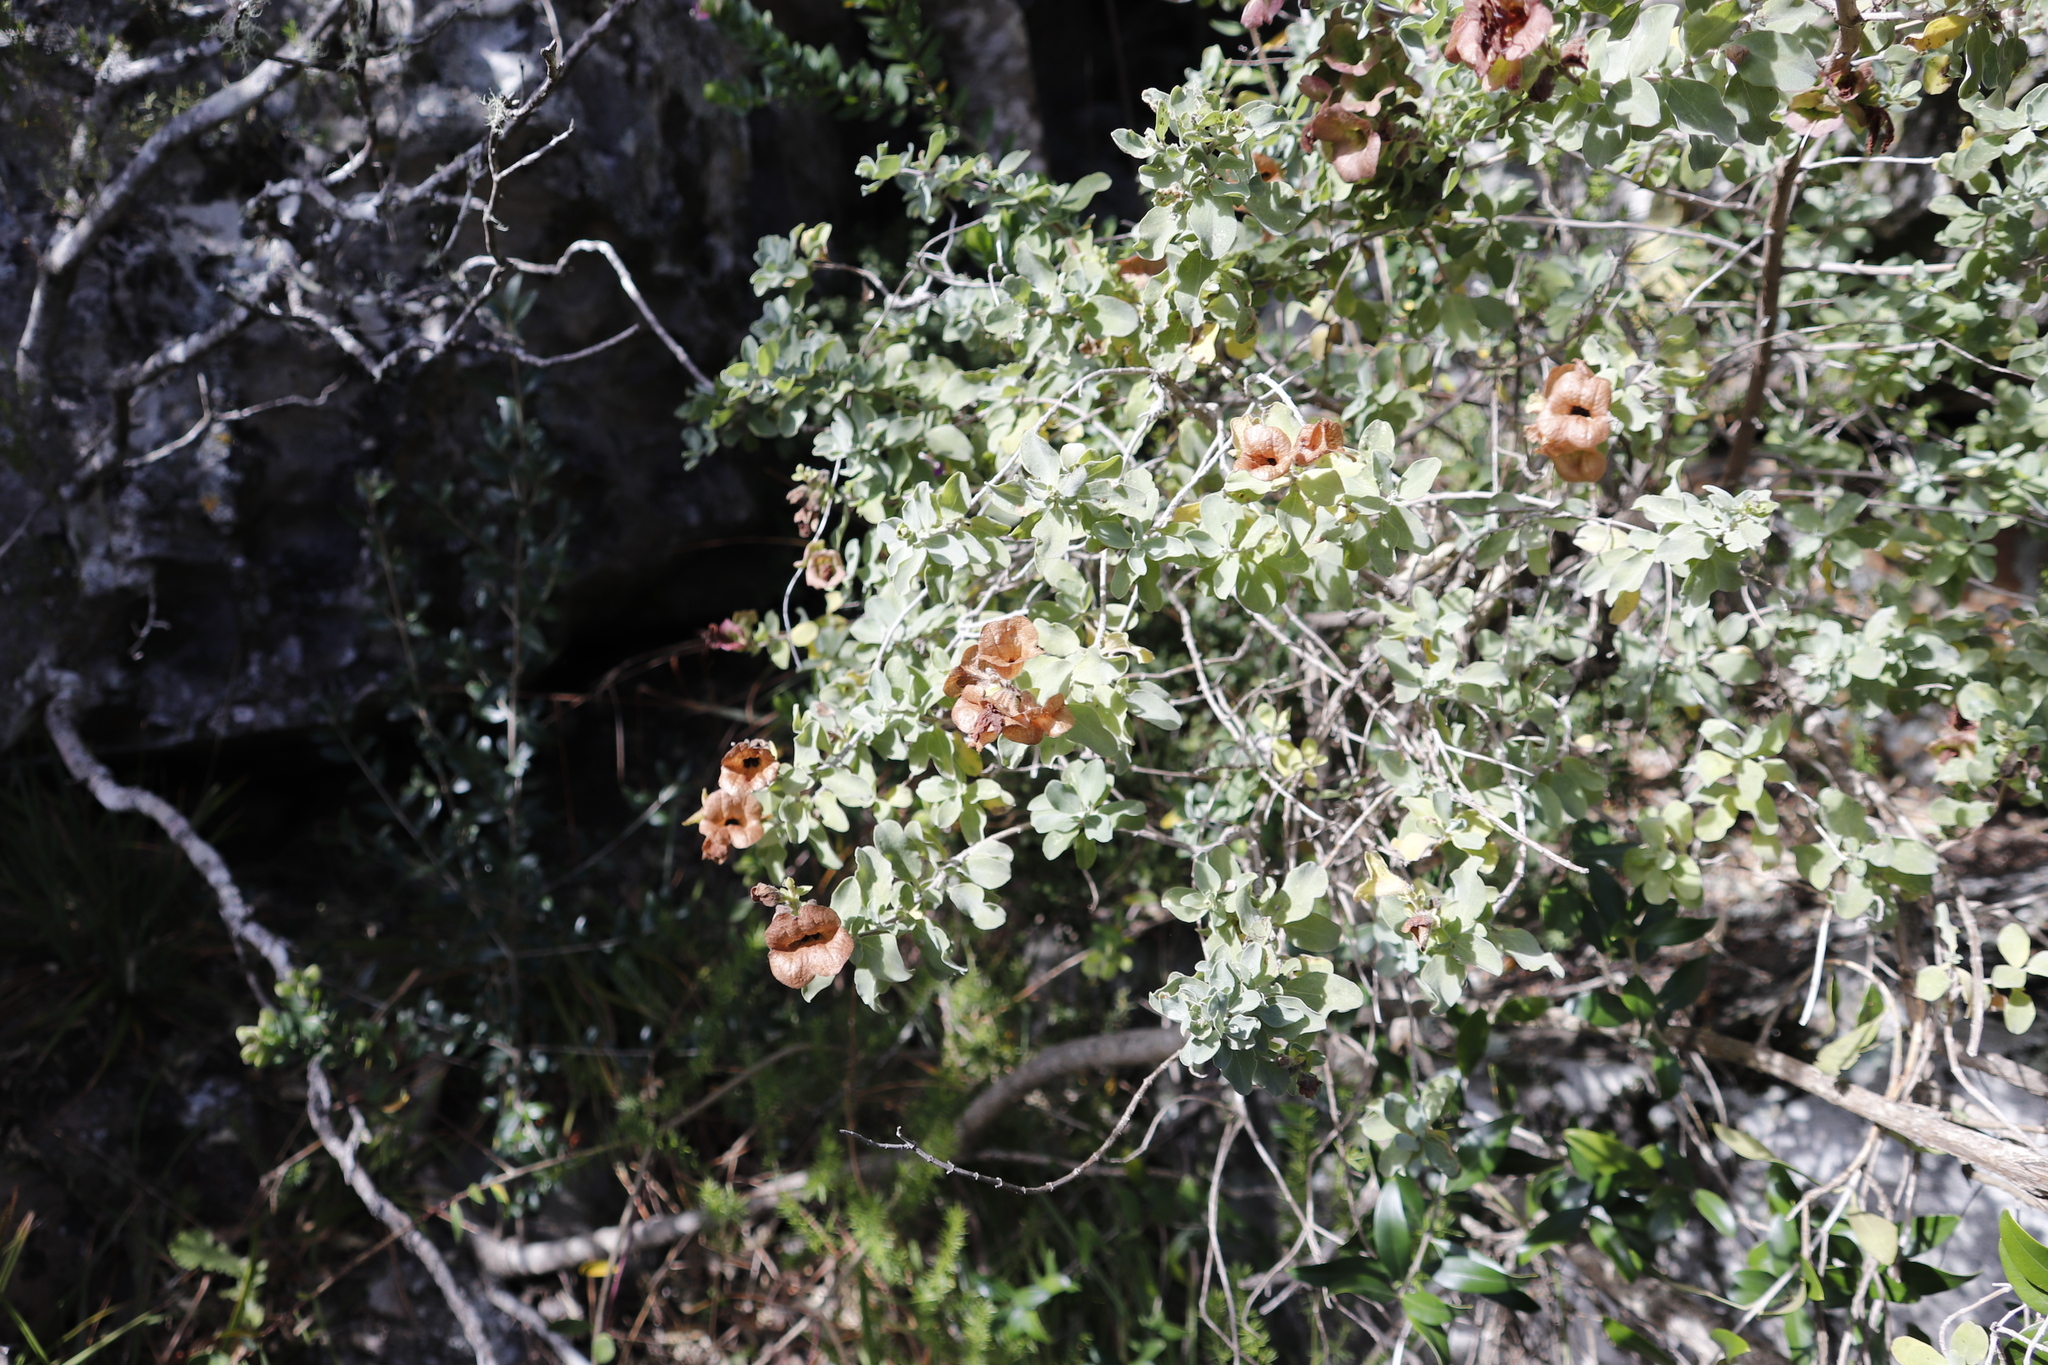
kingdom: Plantae
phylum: Tracheophyta
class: Magnoliopsida
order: Lamiales
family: Lamiaceae
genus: Salvia
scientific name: Salvia aurea
